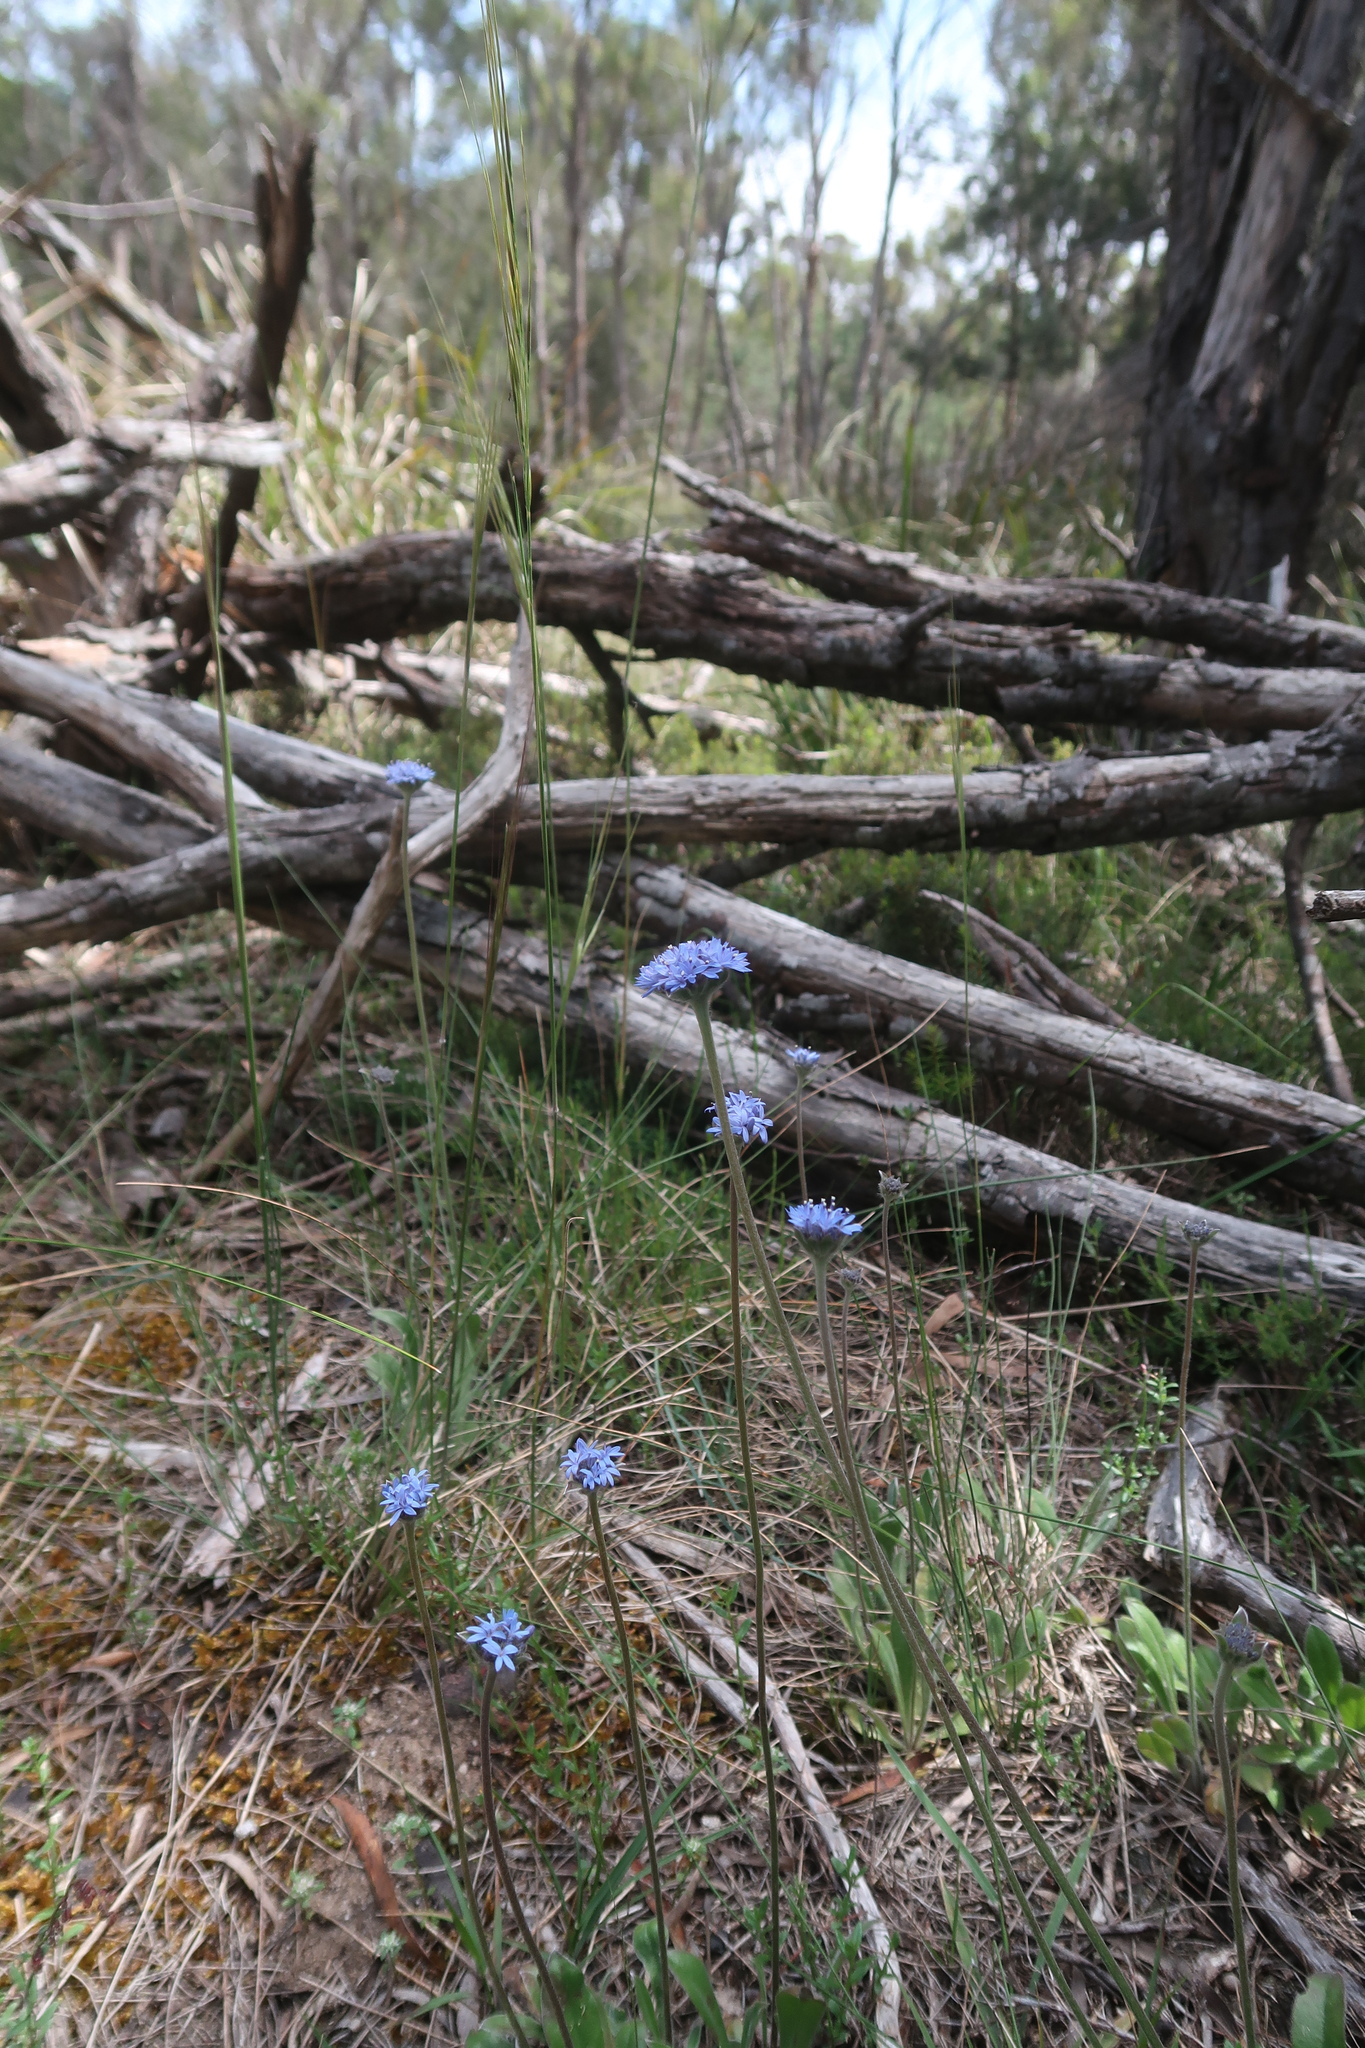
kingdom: Plantae
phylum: Tracheophyta
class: Magnoliopsida
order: Asterales
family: Goodeniaceae
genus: Brunonia
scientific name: Brunonia australis
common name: Blue pincushion
